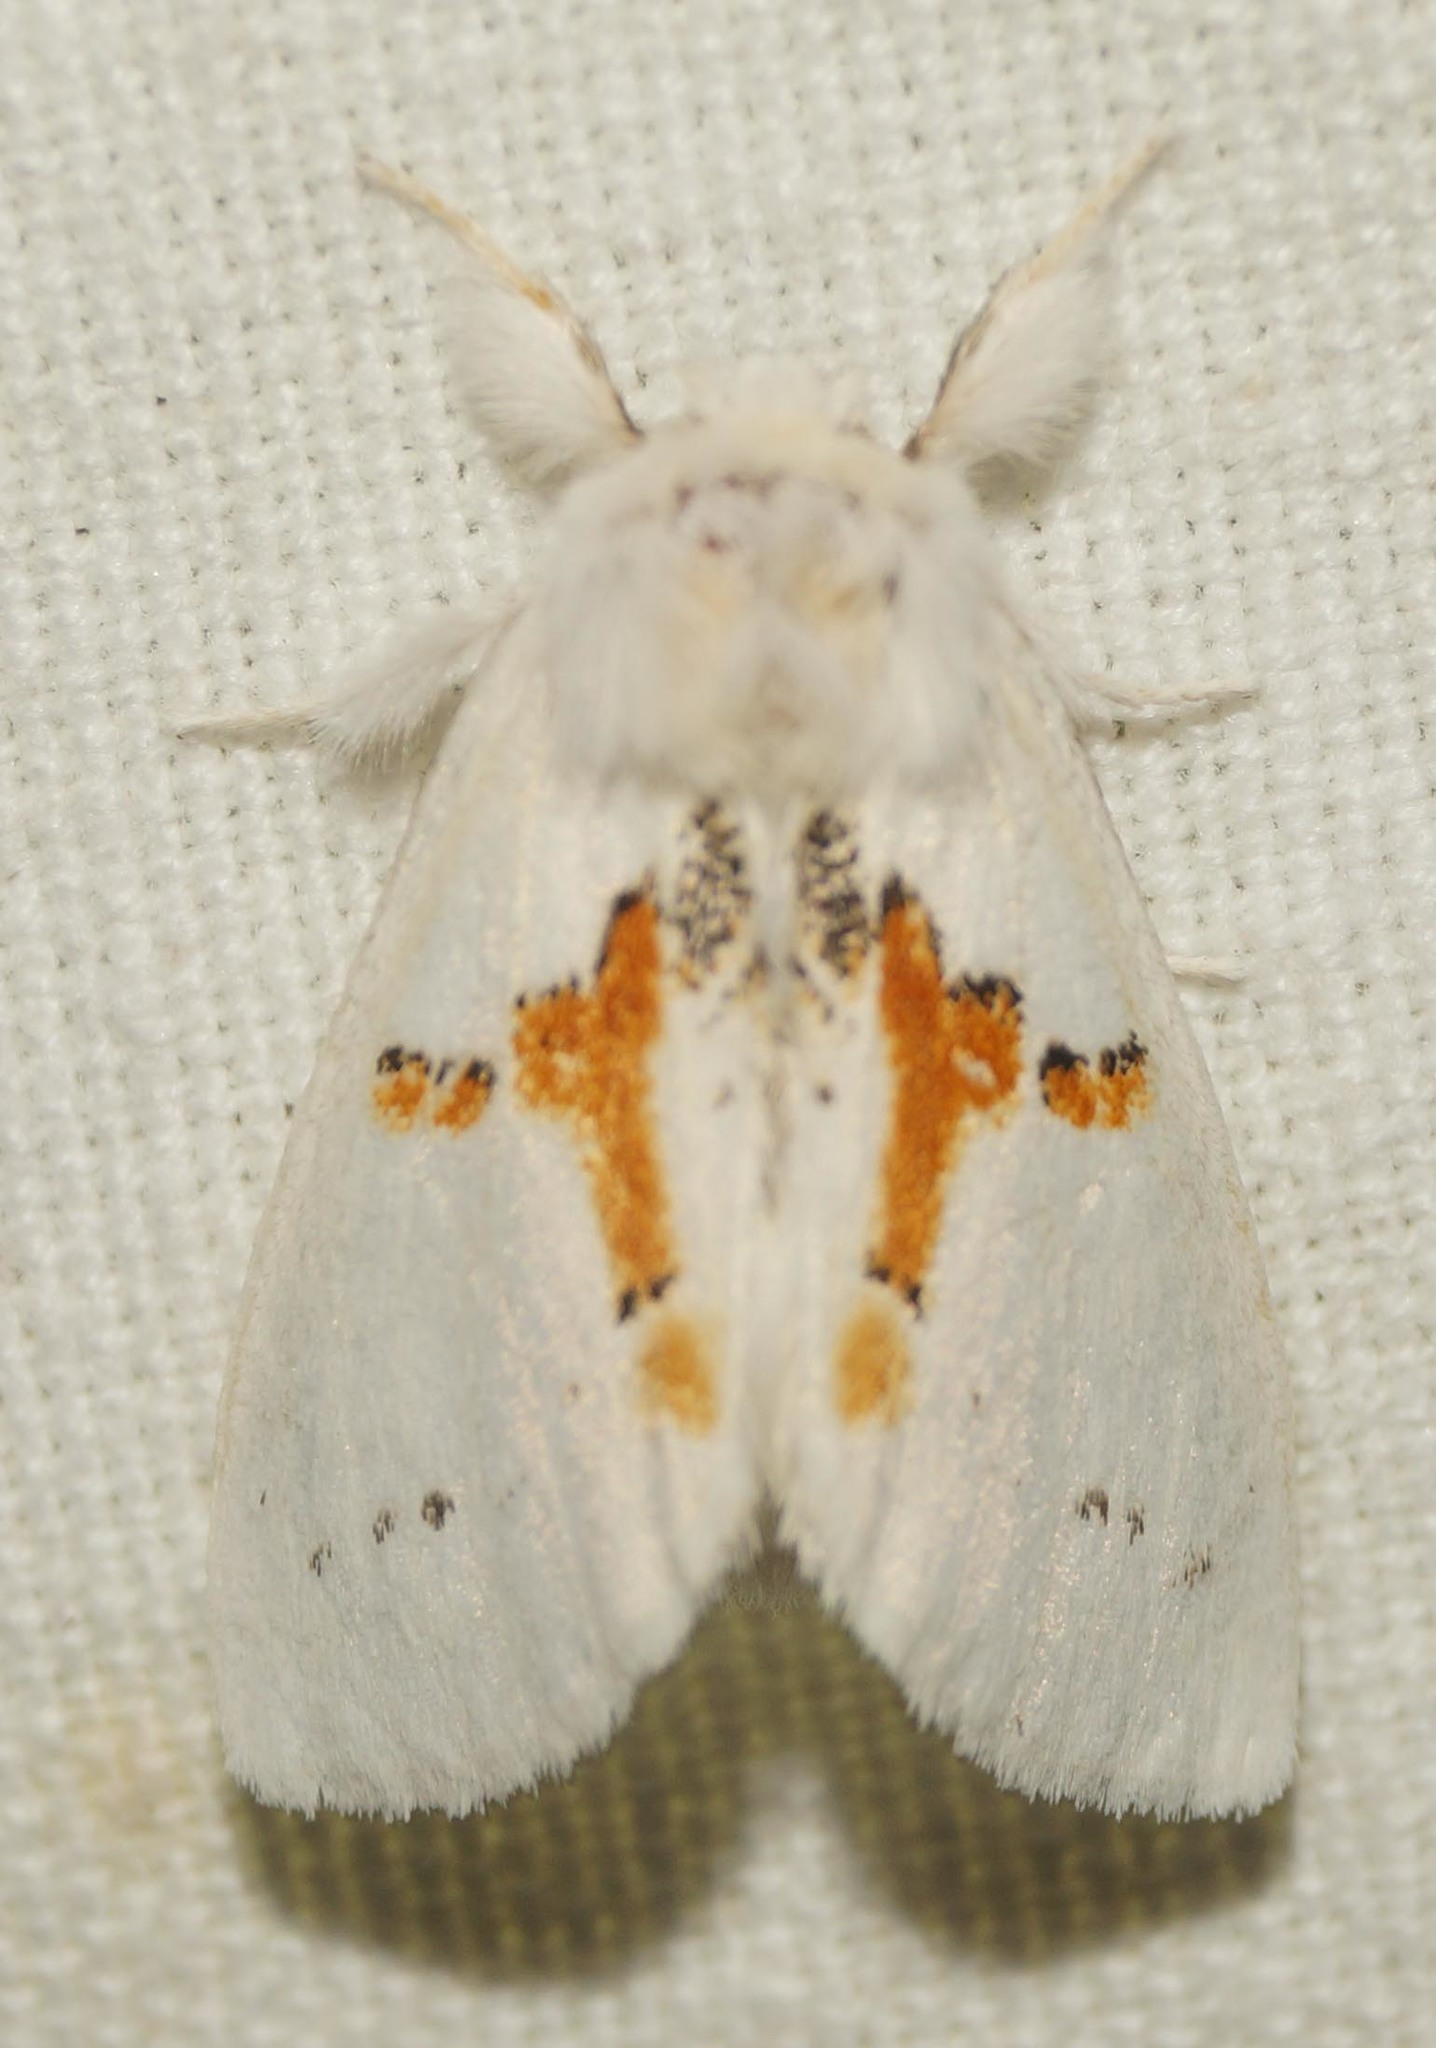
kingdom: Animalia
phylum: Arthropoda
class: Insecta
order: Lepidoptera
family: Notodontidae
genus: Leucodonta
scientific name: Leucodonta bicoloria
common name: White prominent
